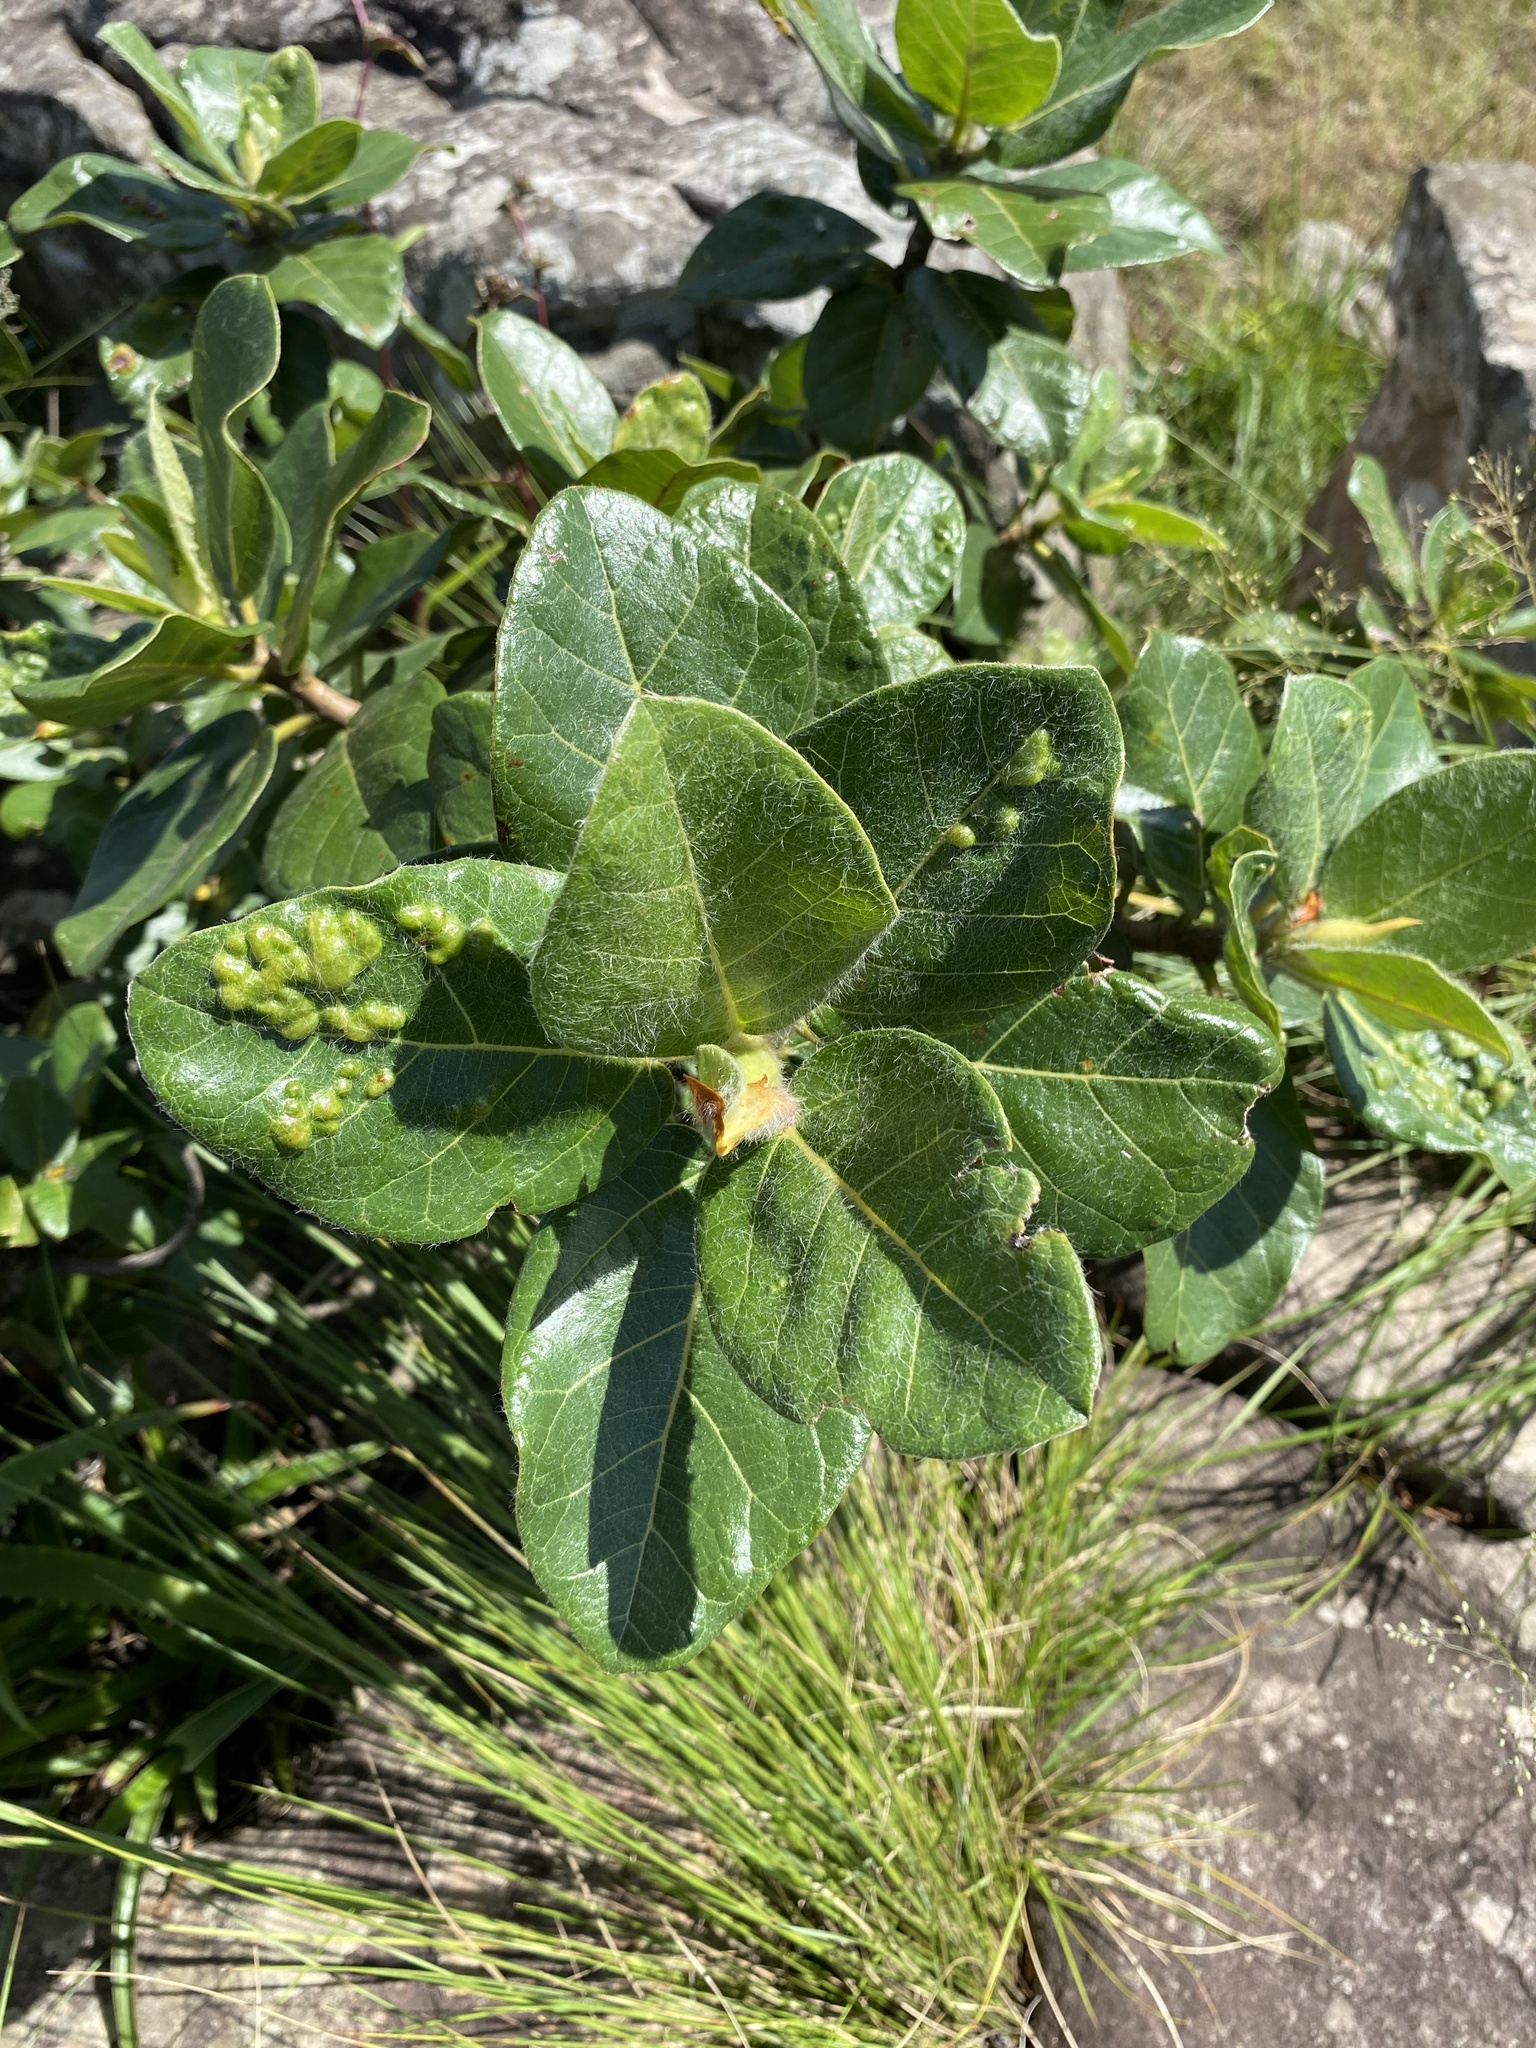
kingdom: Plantae
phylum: Tracheophyta
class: Magnoliopsida
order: Rosales
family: Moraceae
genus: Ficus
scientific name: Ficus glumosa
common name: Hairy rock fig
